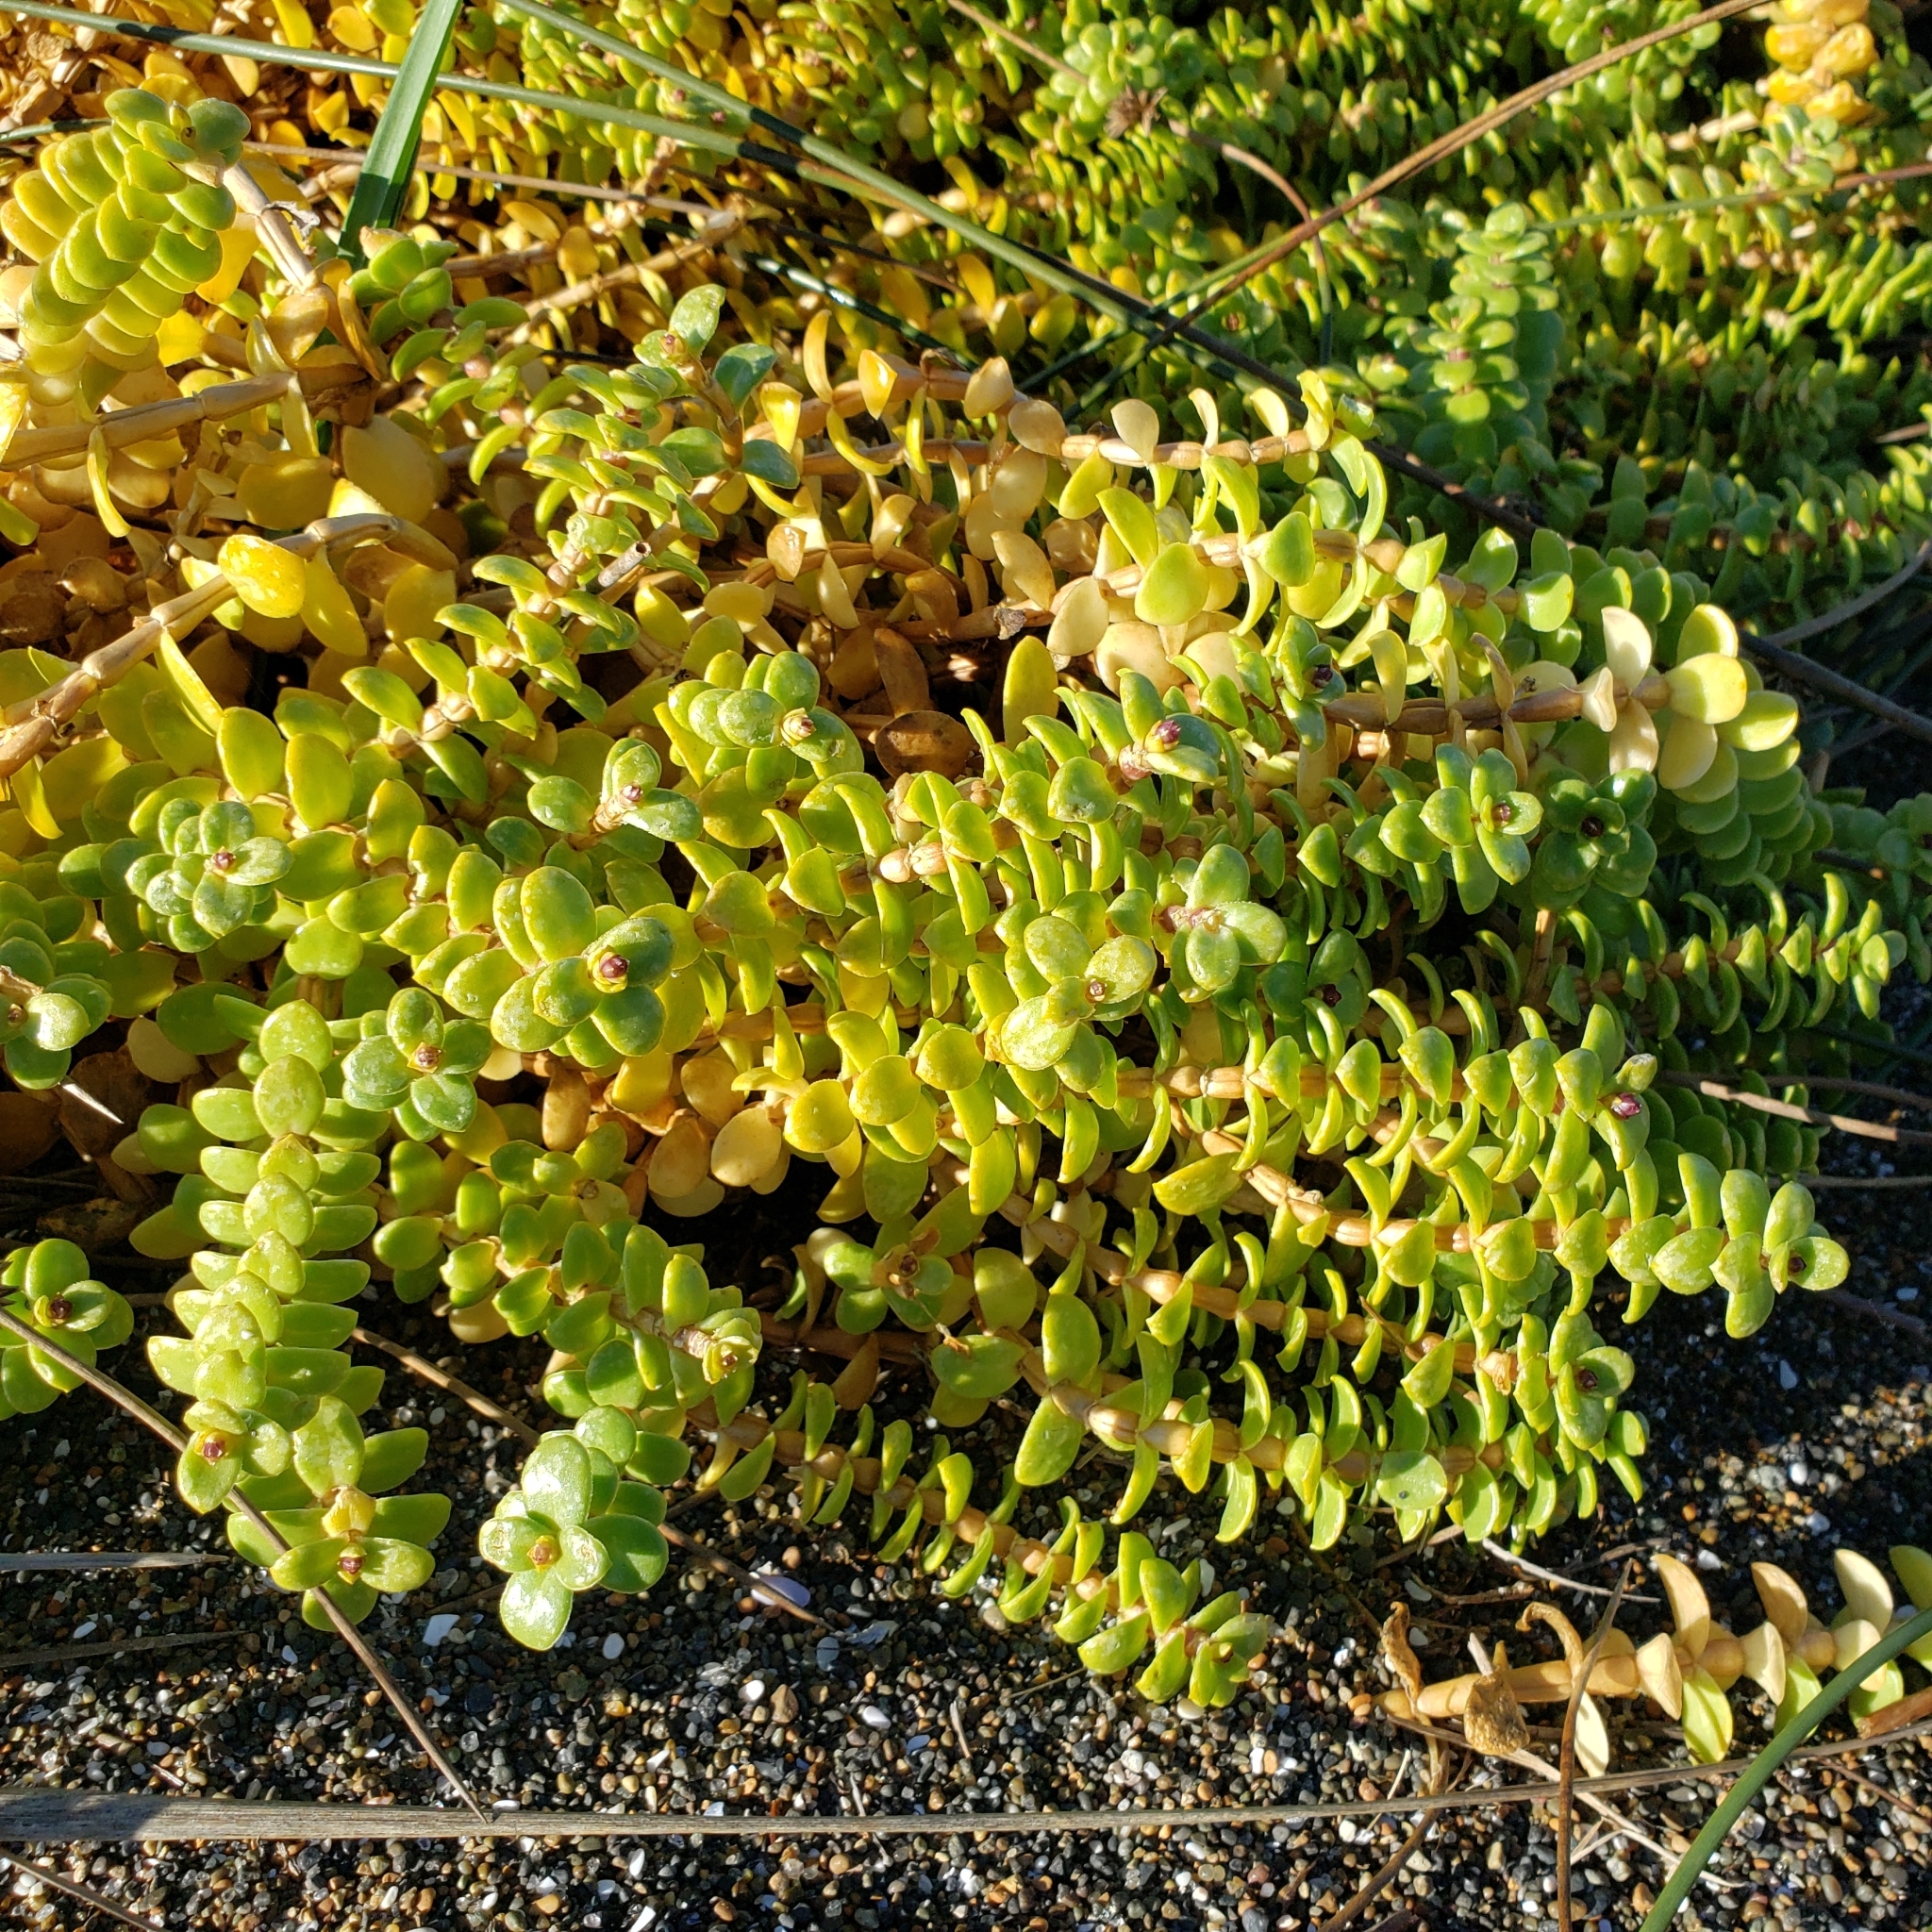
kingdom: Plantae
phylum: Tracheophyta
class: Magnoliopsida
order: Caryophyllales
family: Caryophyllaceae
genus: Honckenya
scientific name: Honckenya peploides
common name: Sea sandwort
